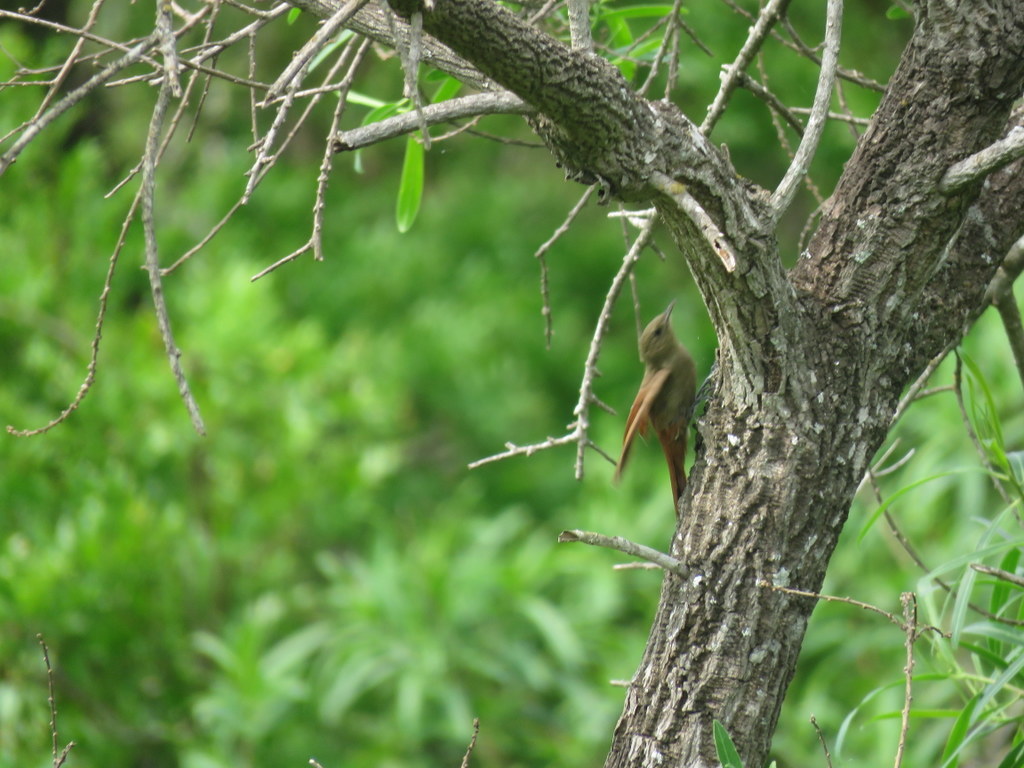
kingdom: Animalia
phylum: Chordata
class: Aves
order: Passeriformes
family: Furnariidae
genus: Sittasomus
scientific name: Sittasomus griseicapillus
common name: Olivaceous woodcreeper
